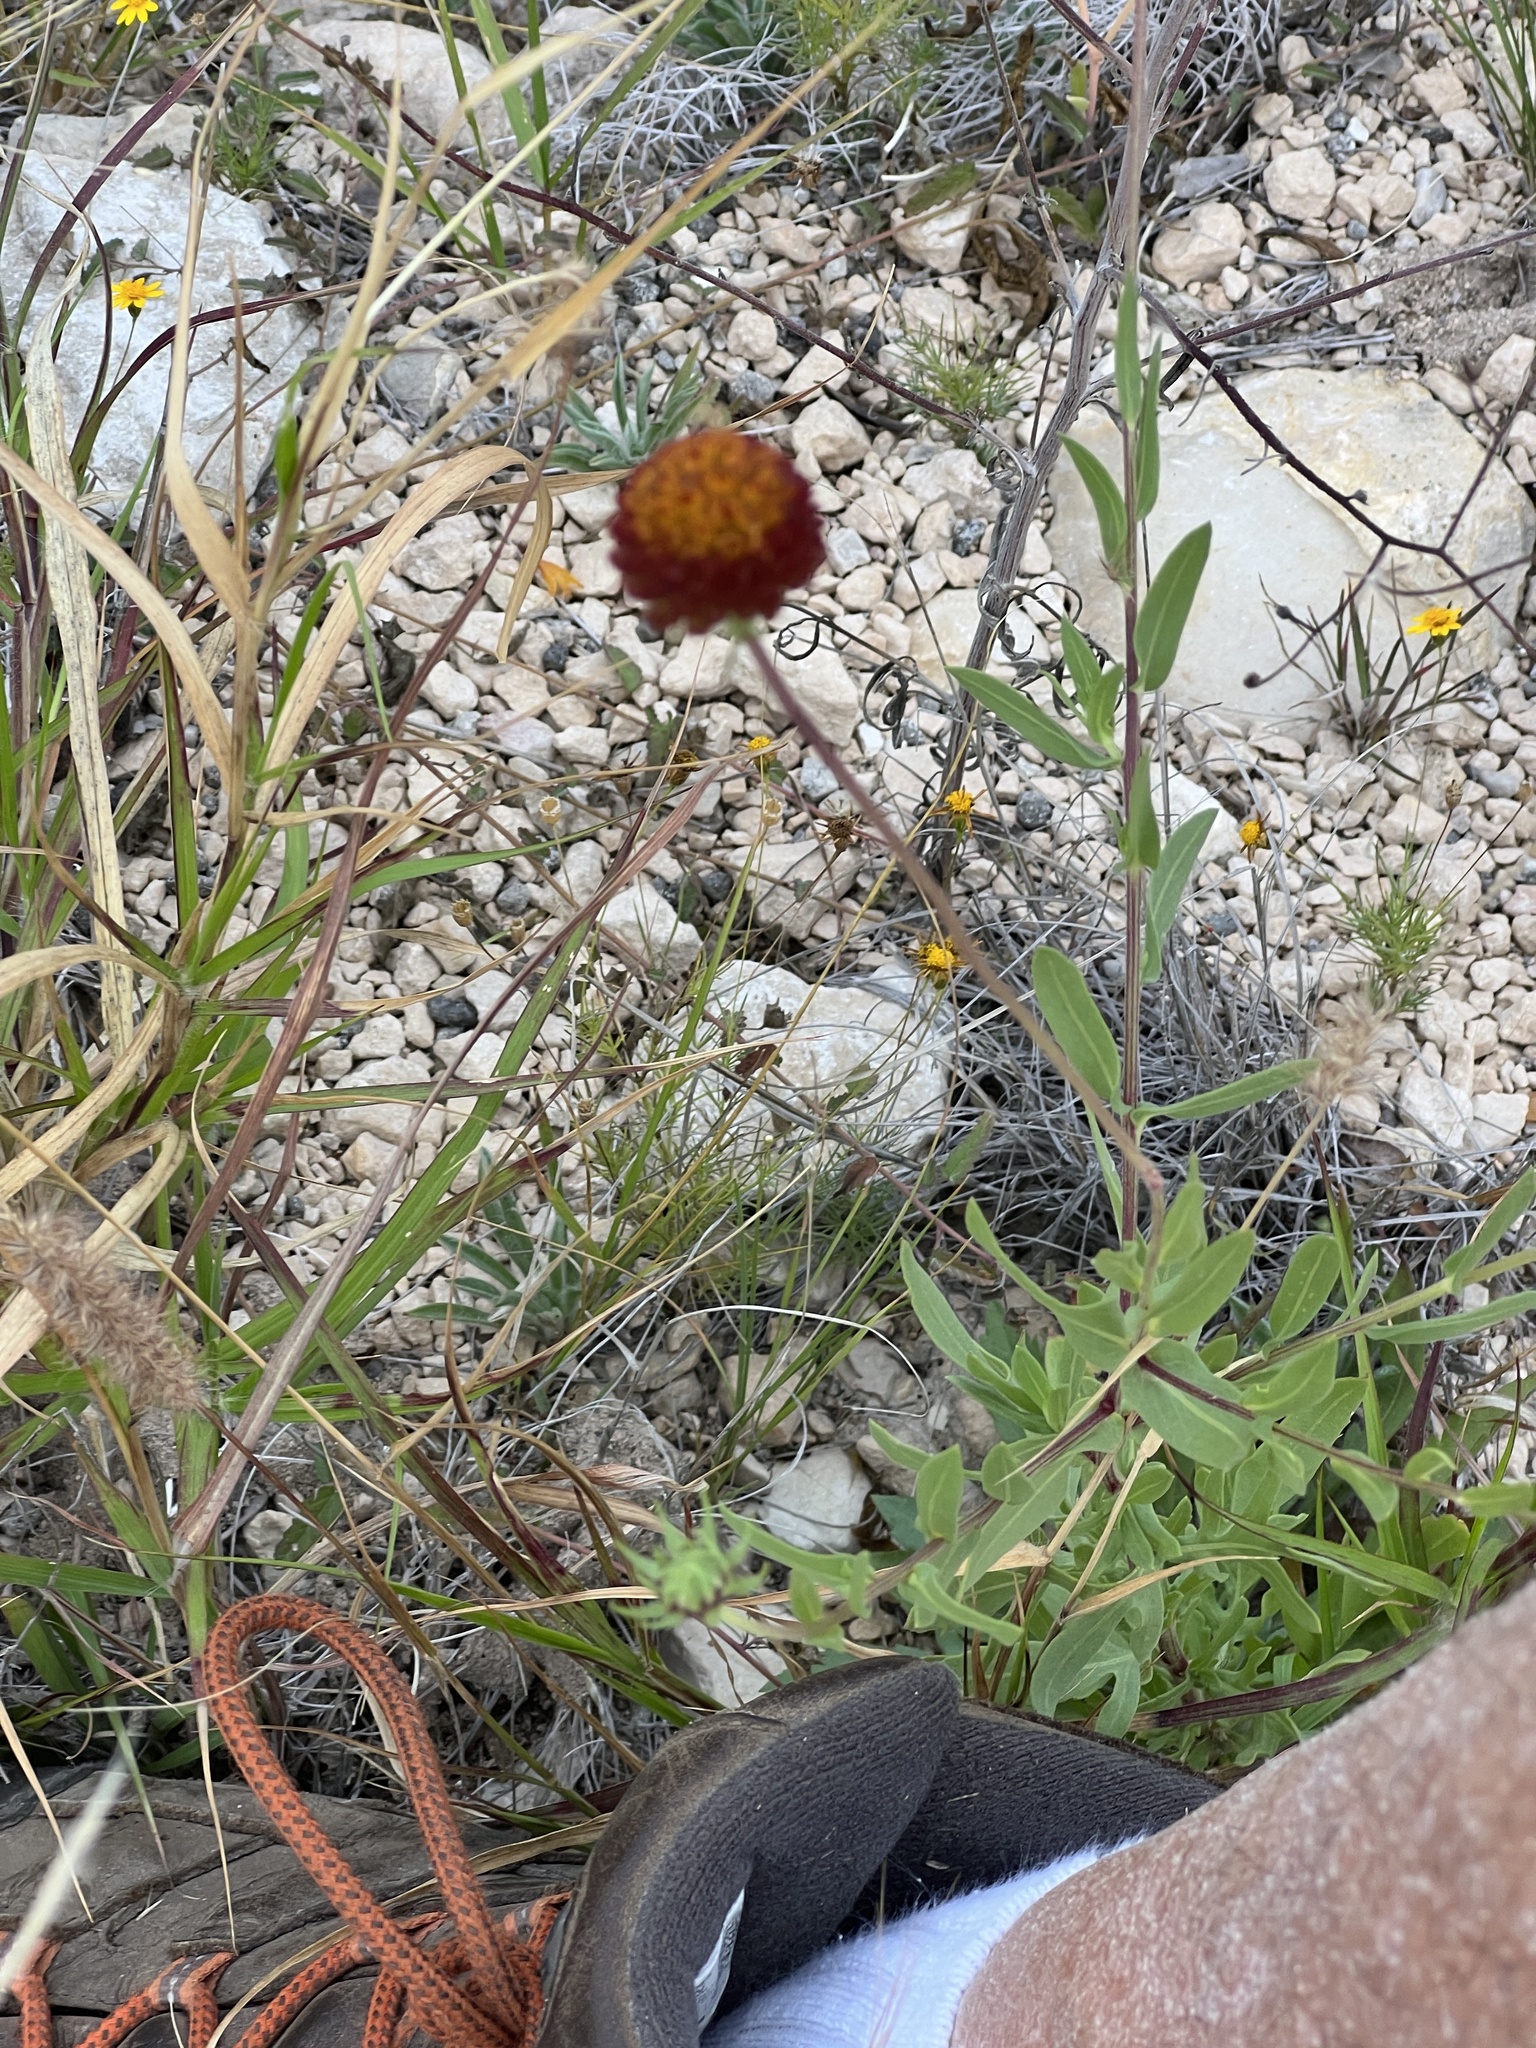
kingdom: Plantae
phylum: Tracheophyta
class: Magnoliopsida
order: Asterales
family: Asteraceae
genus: Gaillardia
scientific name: Gaillardia suavis
